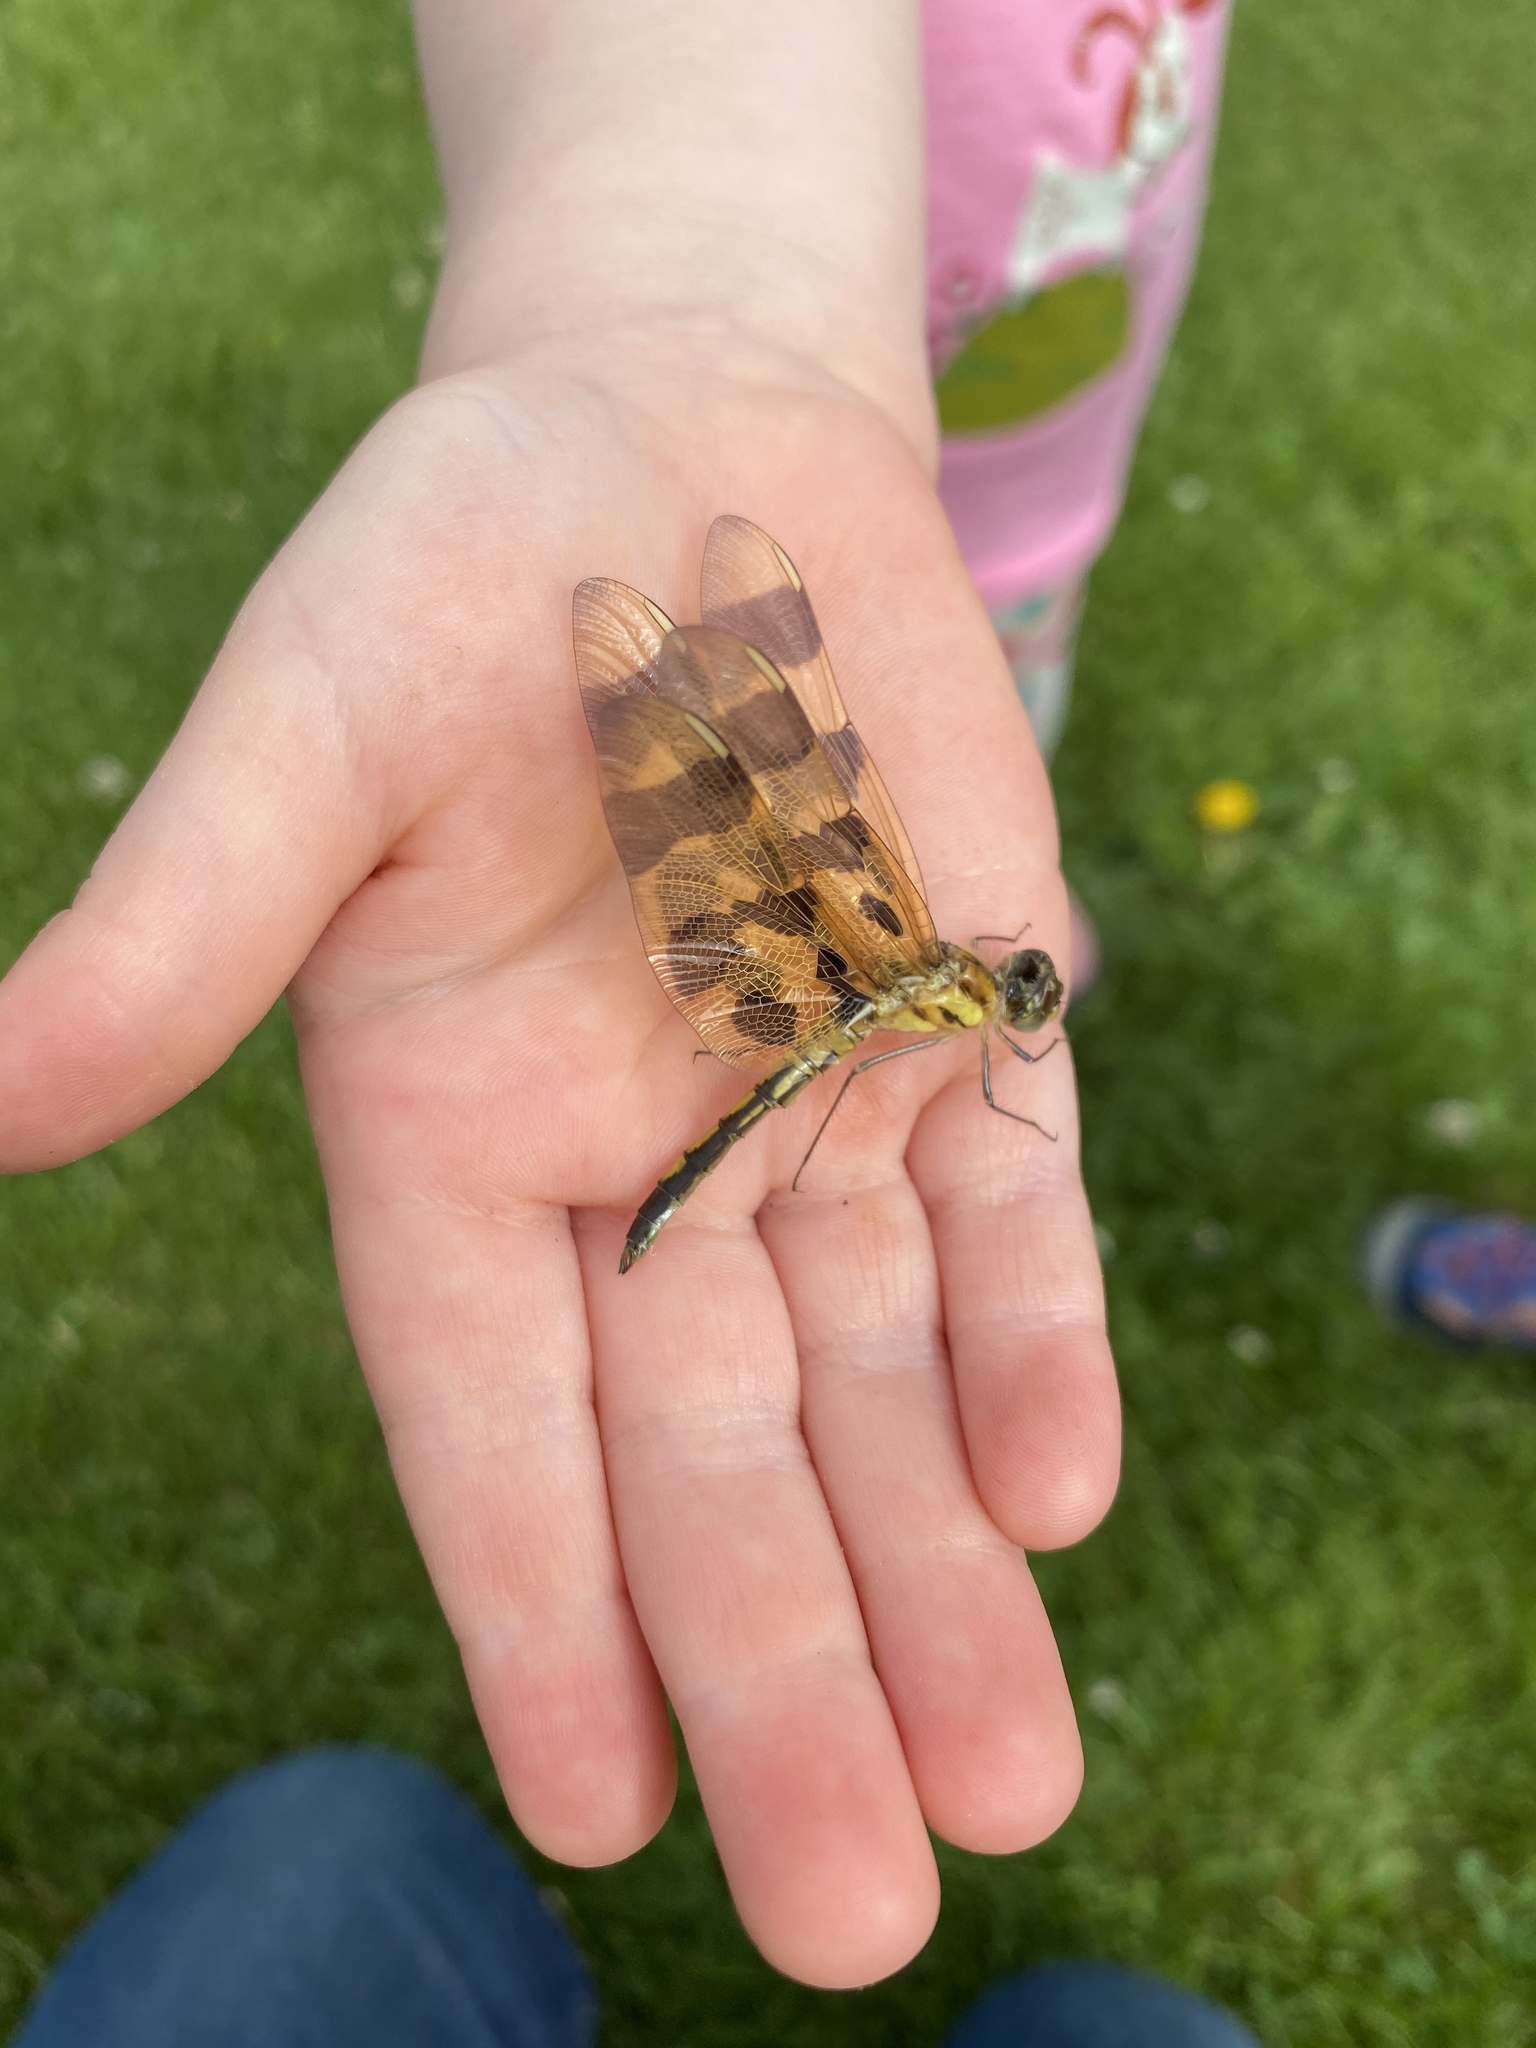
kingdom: Animalia
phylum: Arthropoda
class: Insecta
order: Odonata
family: Libellulidae
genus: Celithemis
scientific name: Celithemis eponina
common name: Halloween pennant
